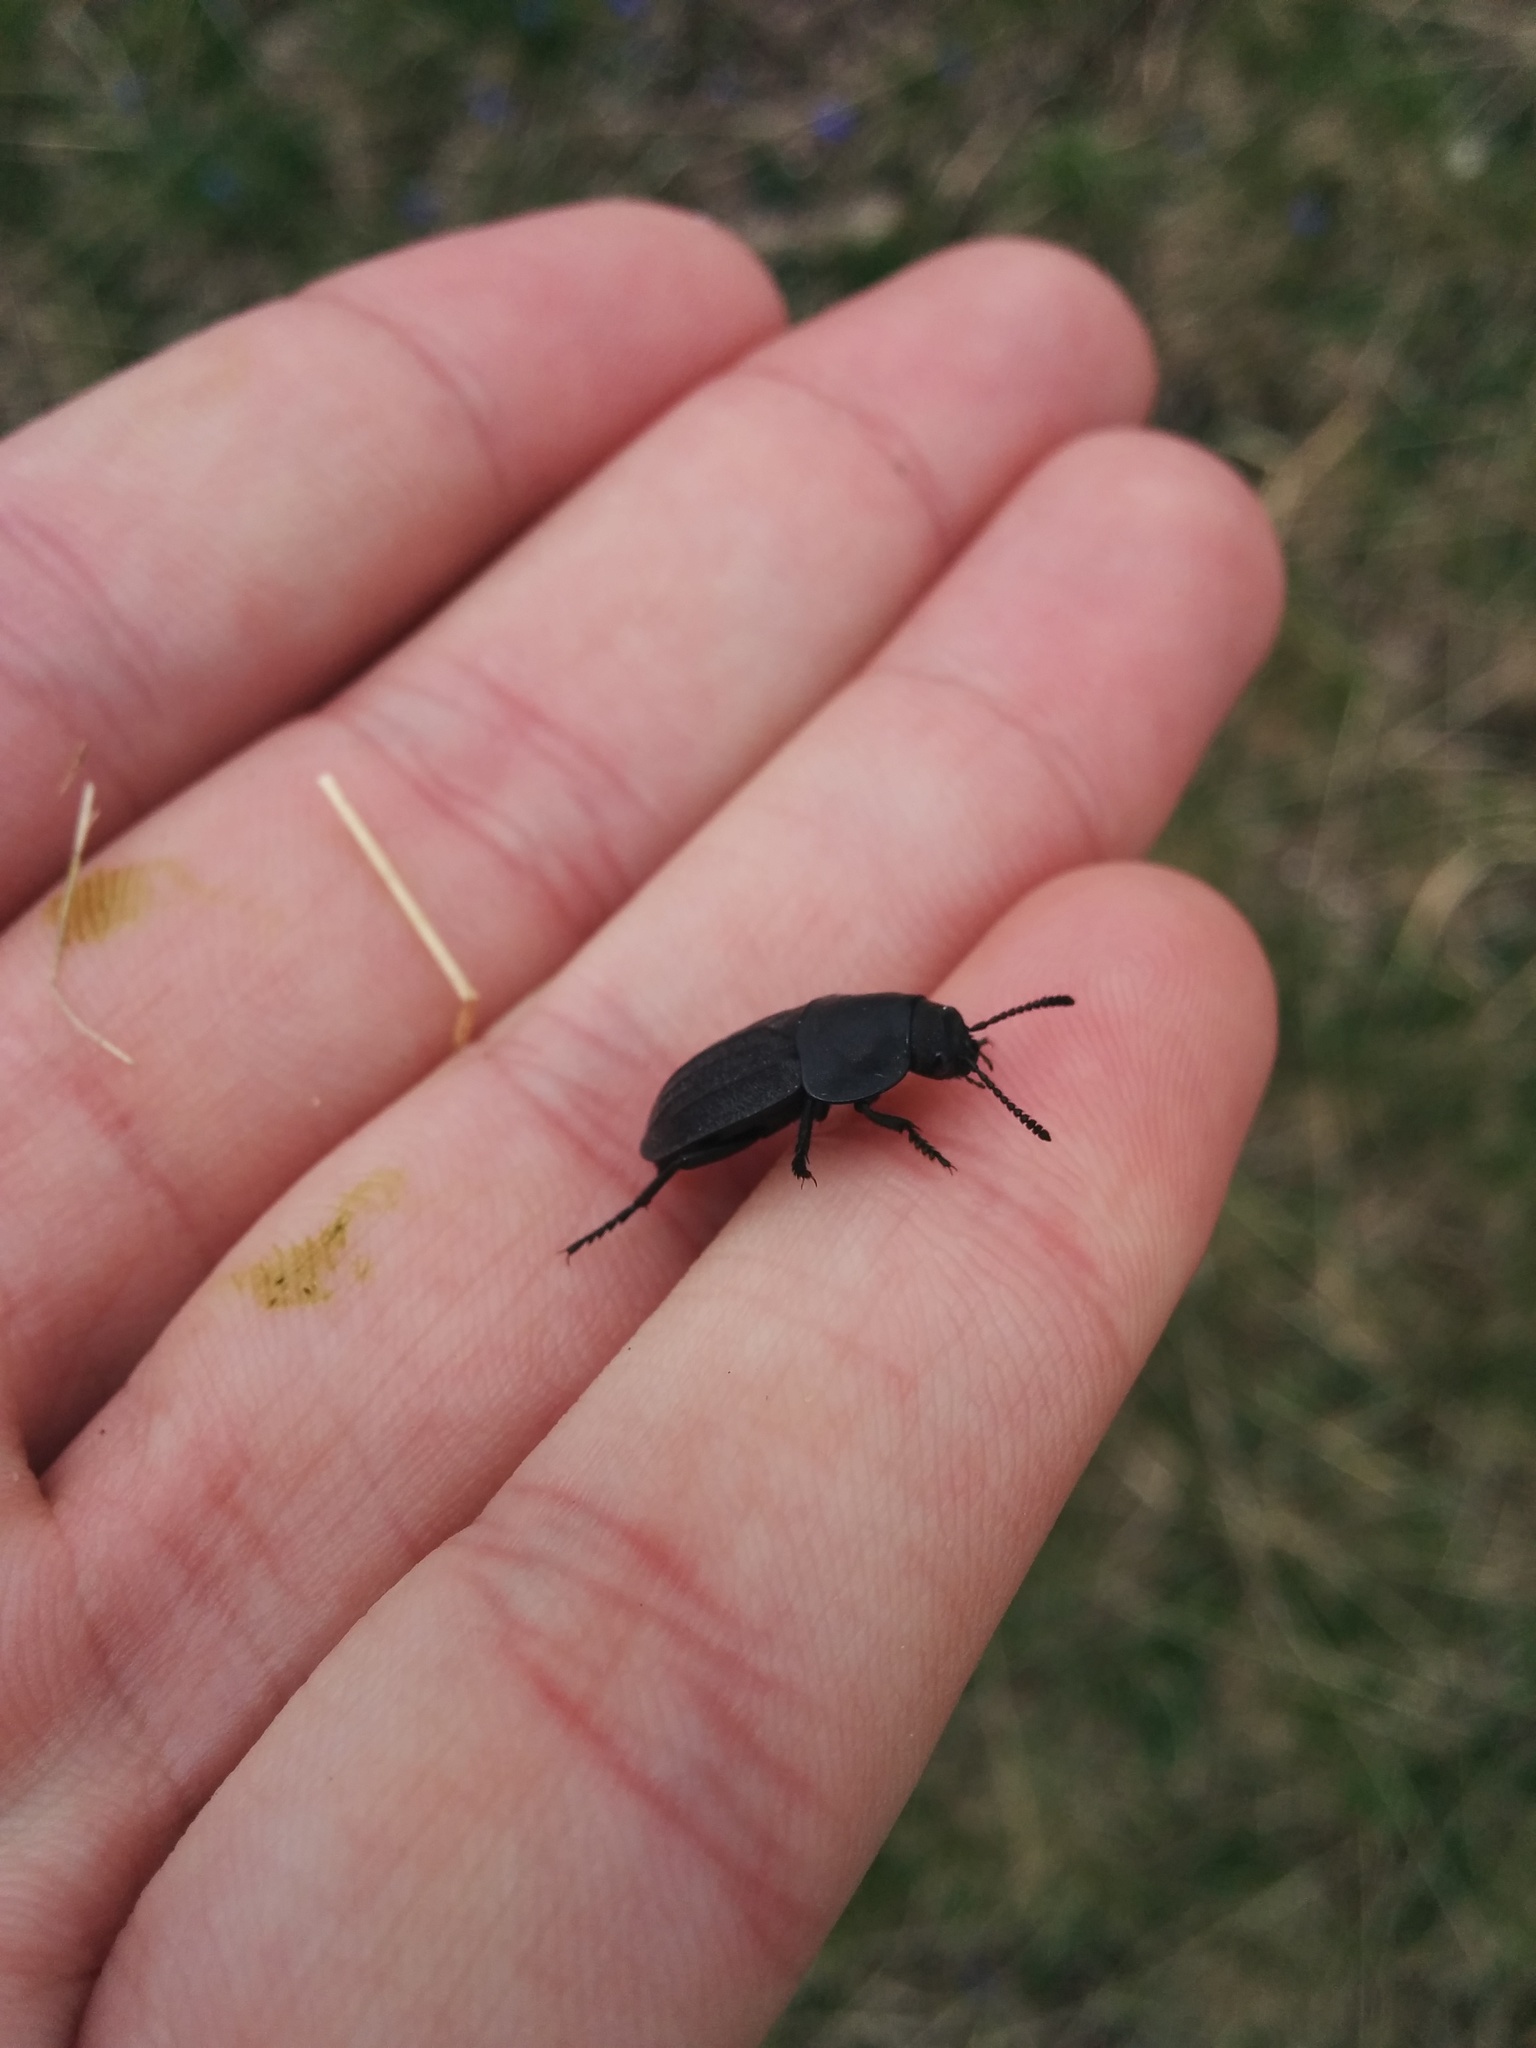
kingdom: Animalia
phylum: Arthropoda
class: Insecta
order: Coleoptera
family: Staphylinidae
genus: Aclypea
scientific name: Aclypea undata
